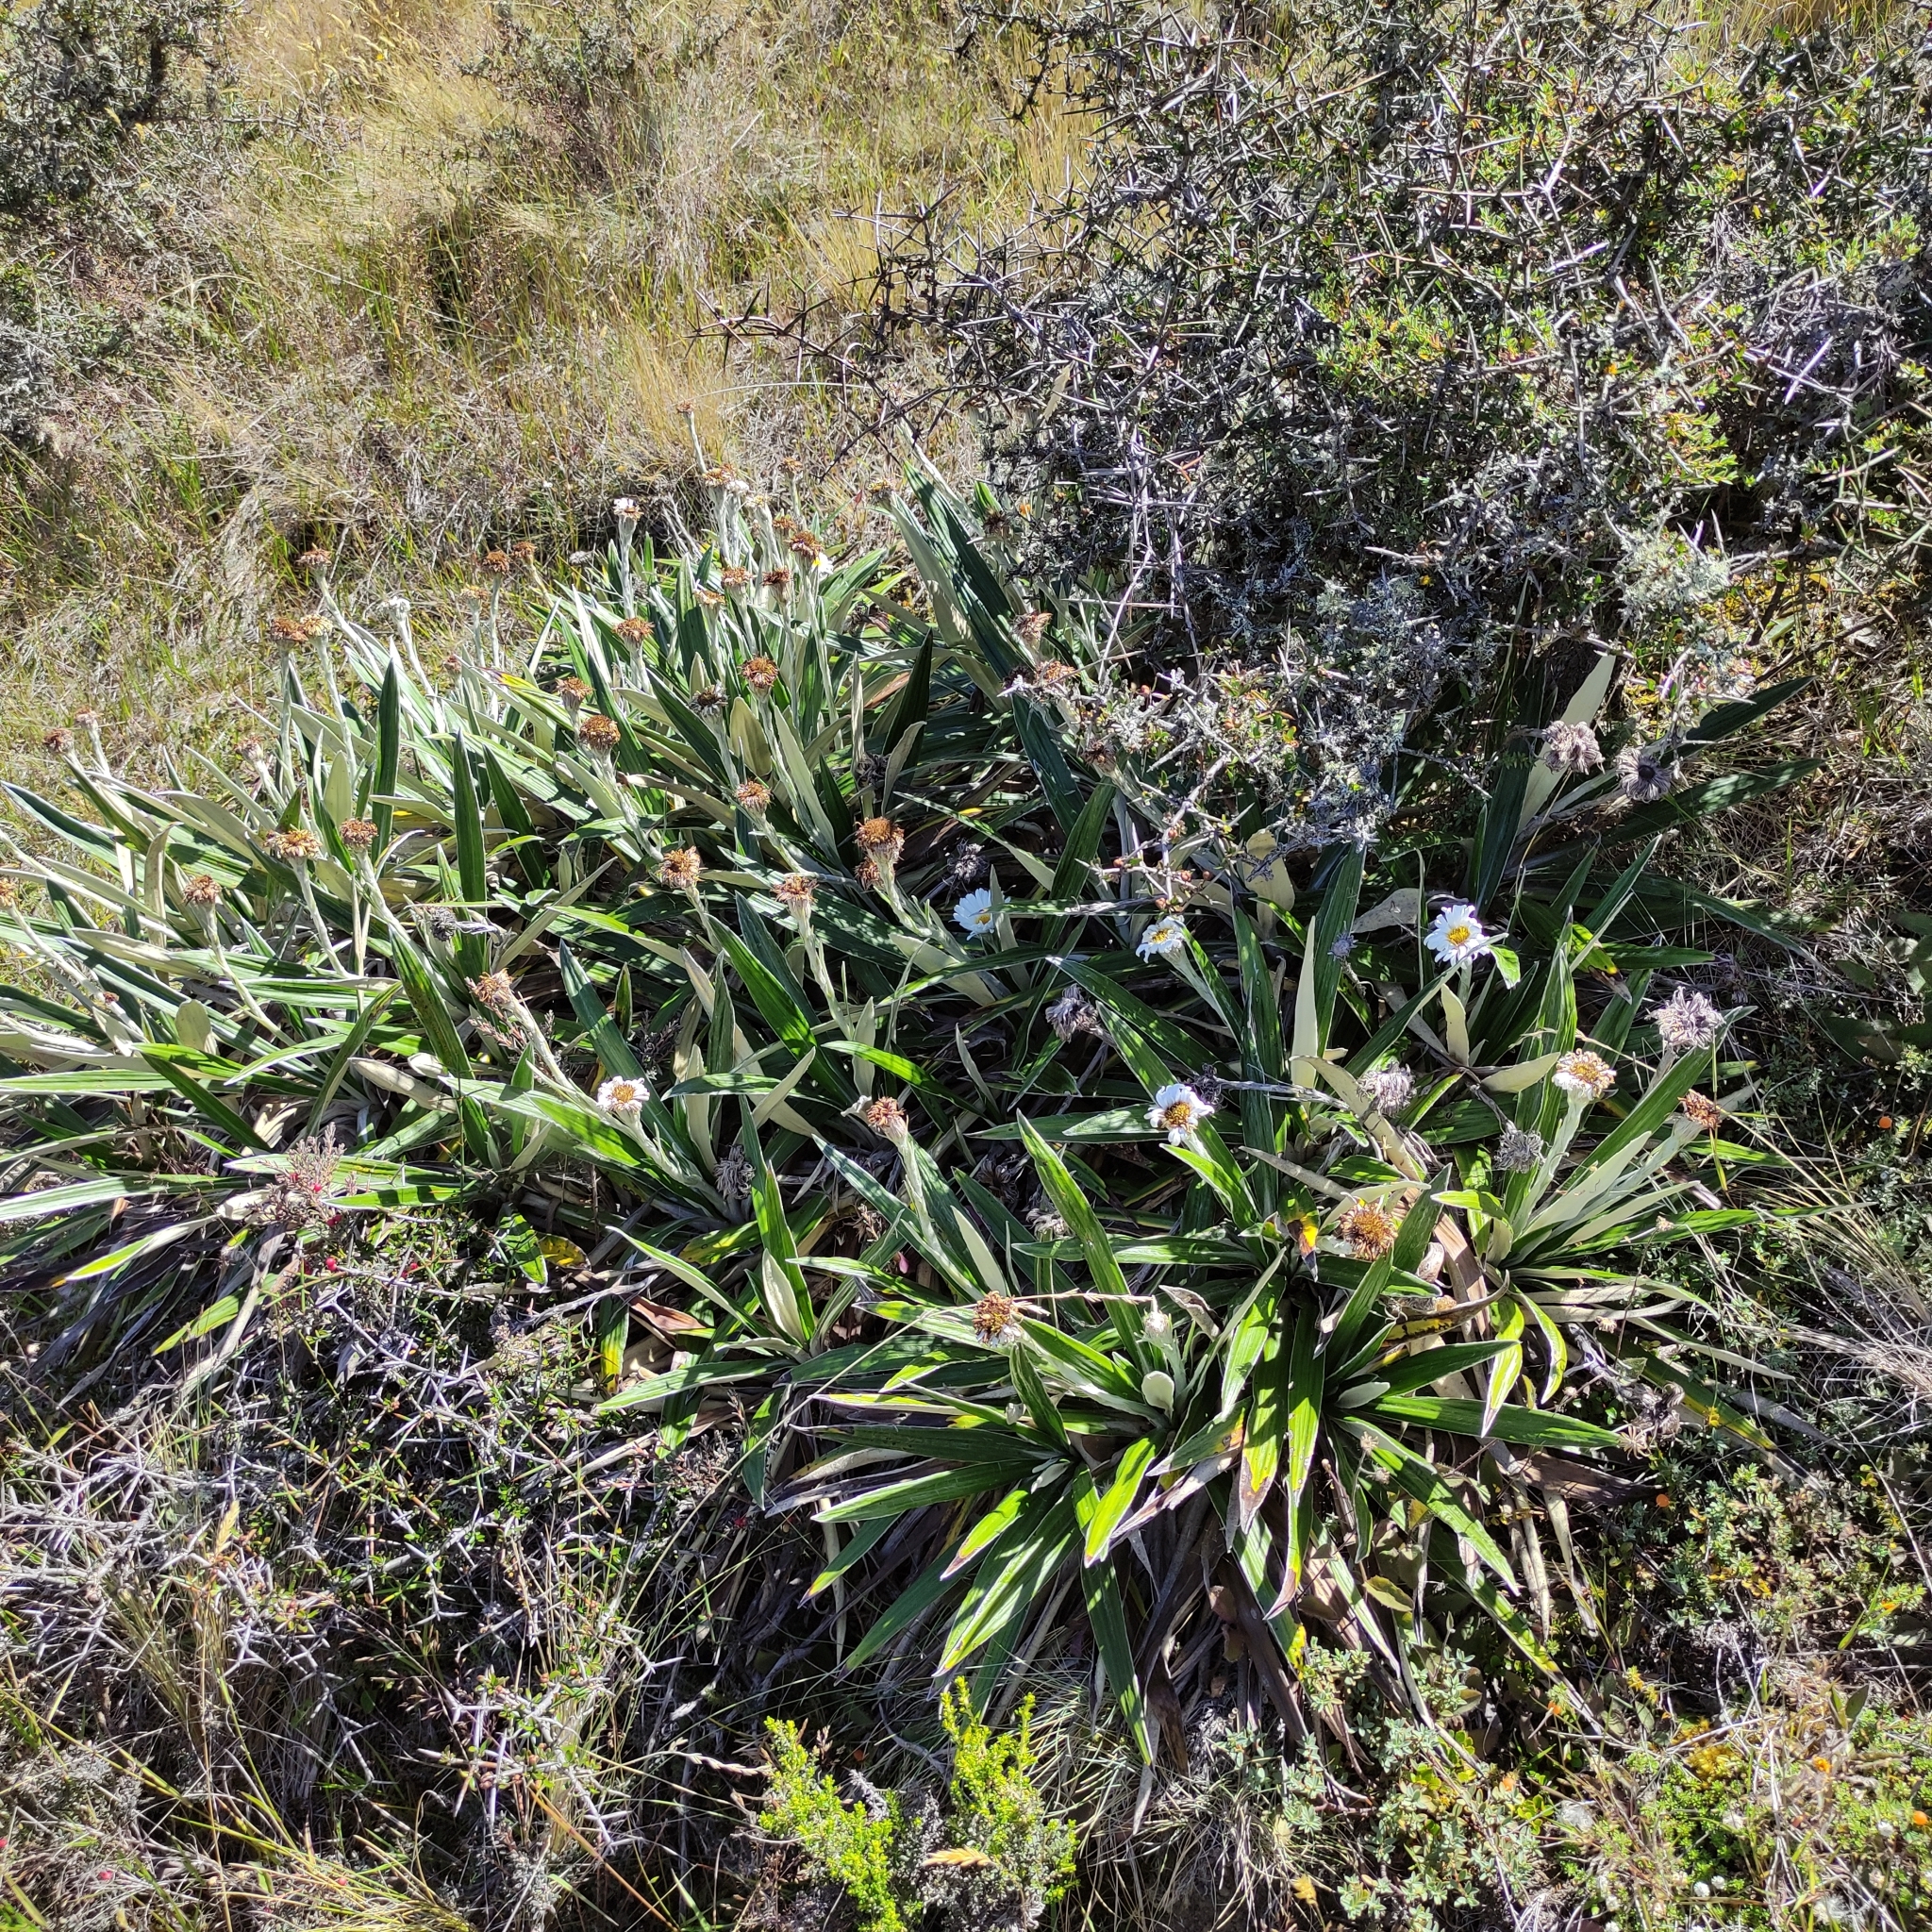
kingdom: Plantae
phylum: Tracheophyta
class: Magnoliopsida
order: Asterales
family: Asteraceae
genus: Celmisia
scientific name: Celmisia spectabilis
